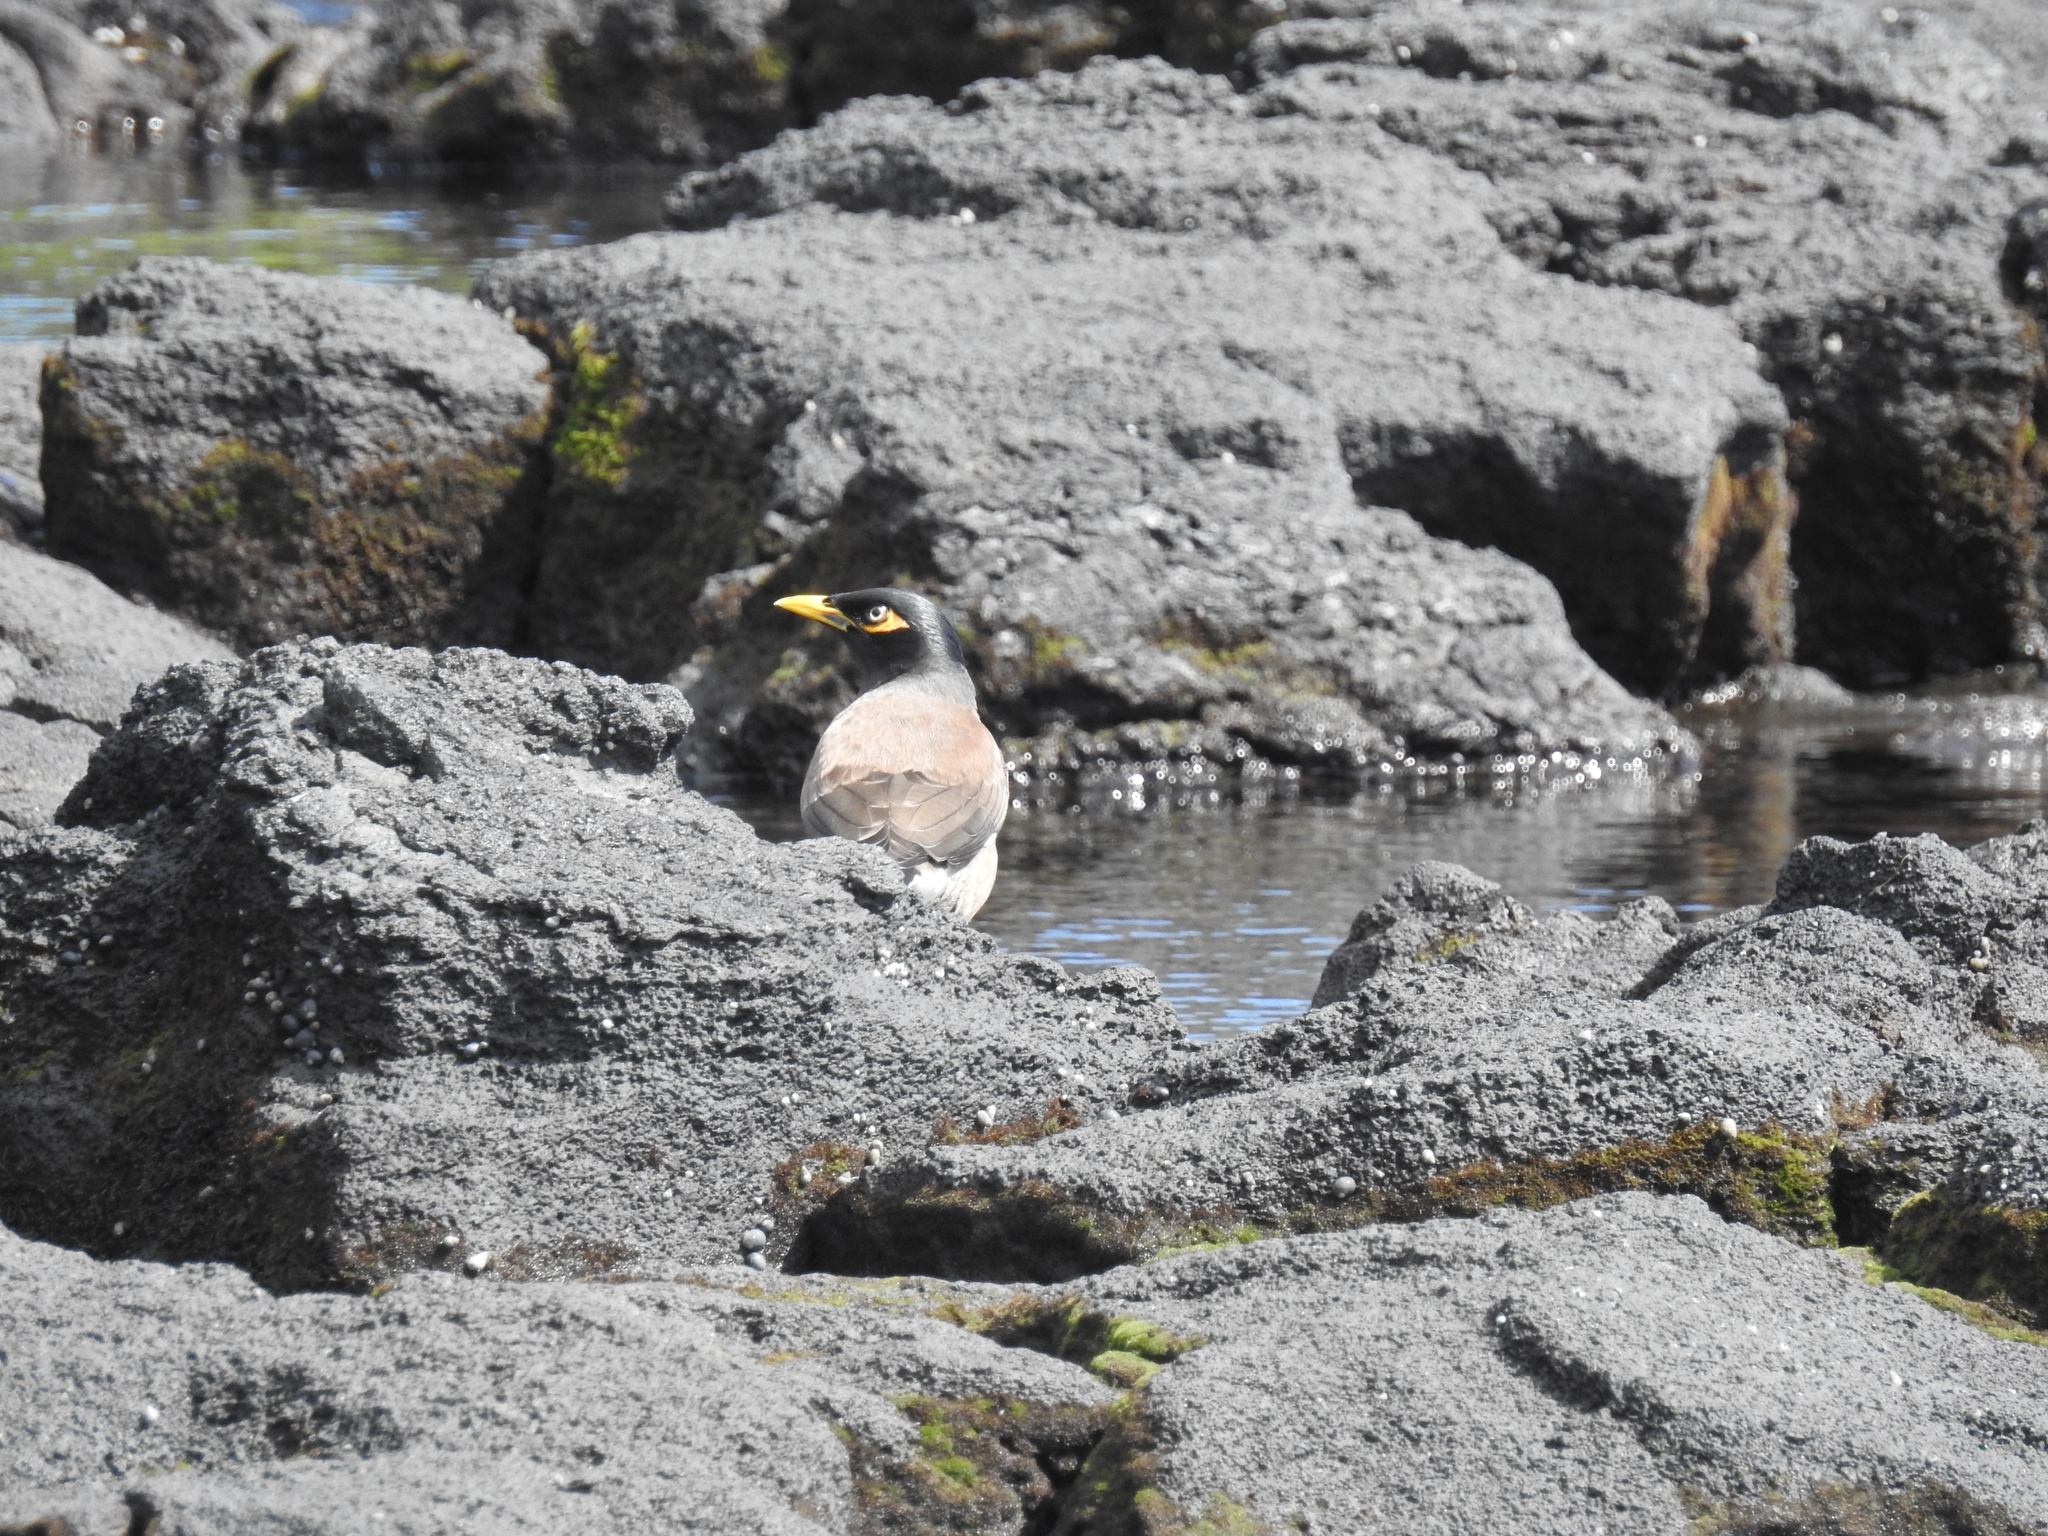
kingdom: Animalia
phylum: Chordata
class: Aves
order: Passeriformes
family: Sturnidae
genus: Acridotheres
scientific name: Acridotheres tristis
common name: Common myna
